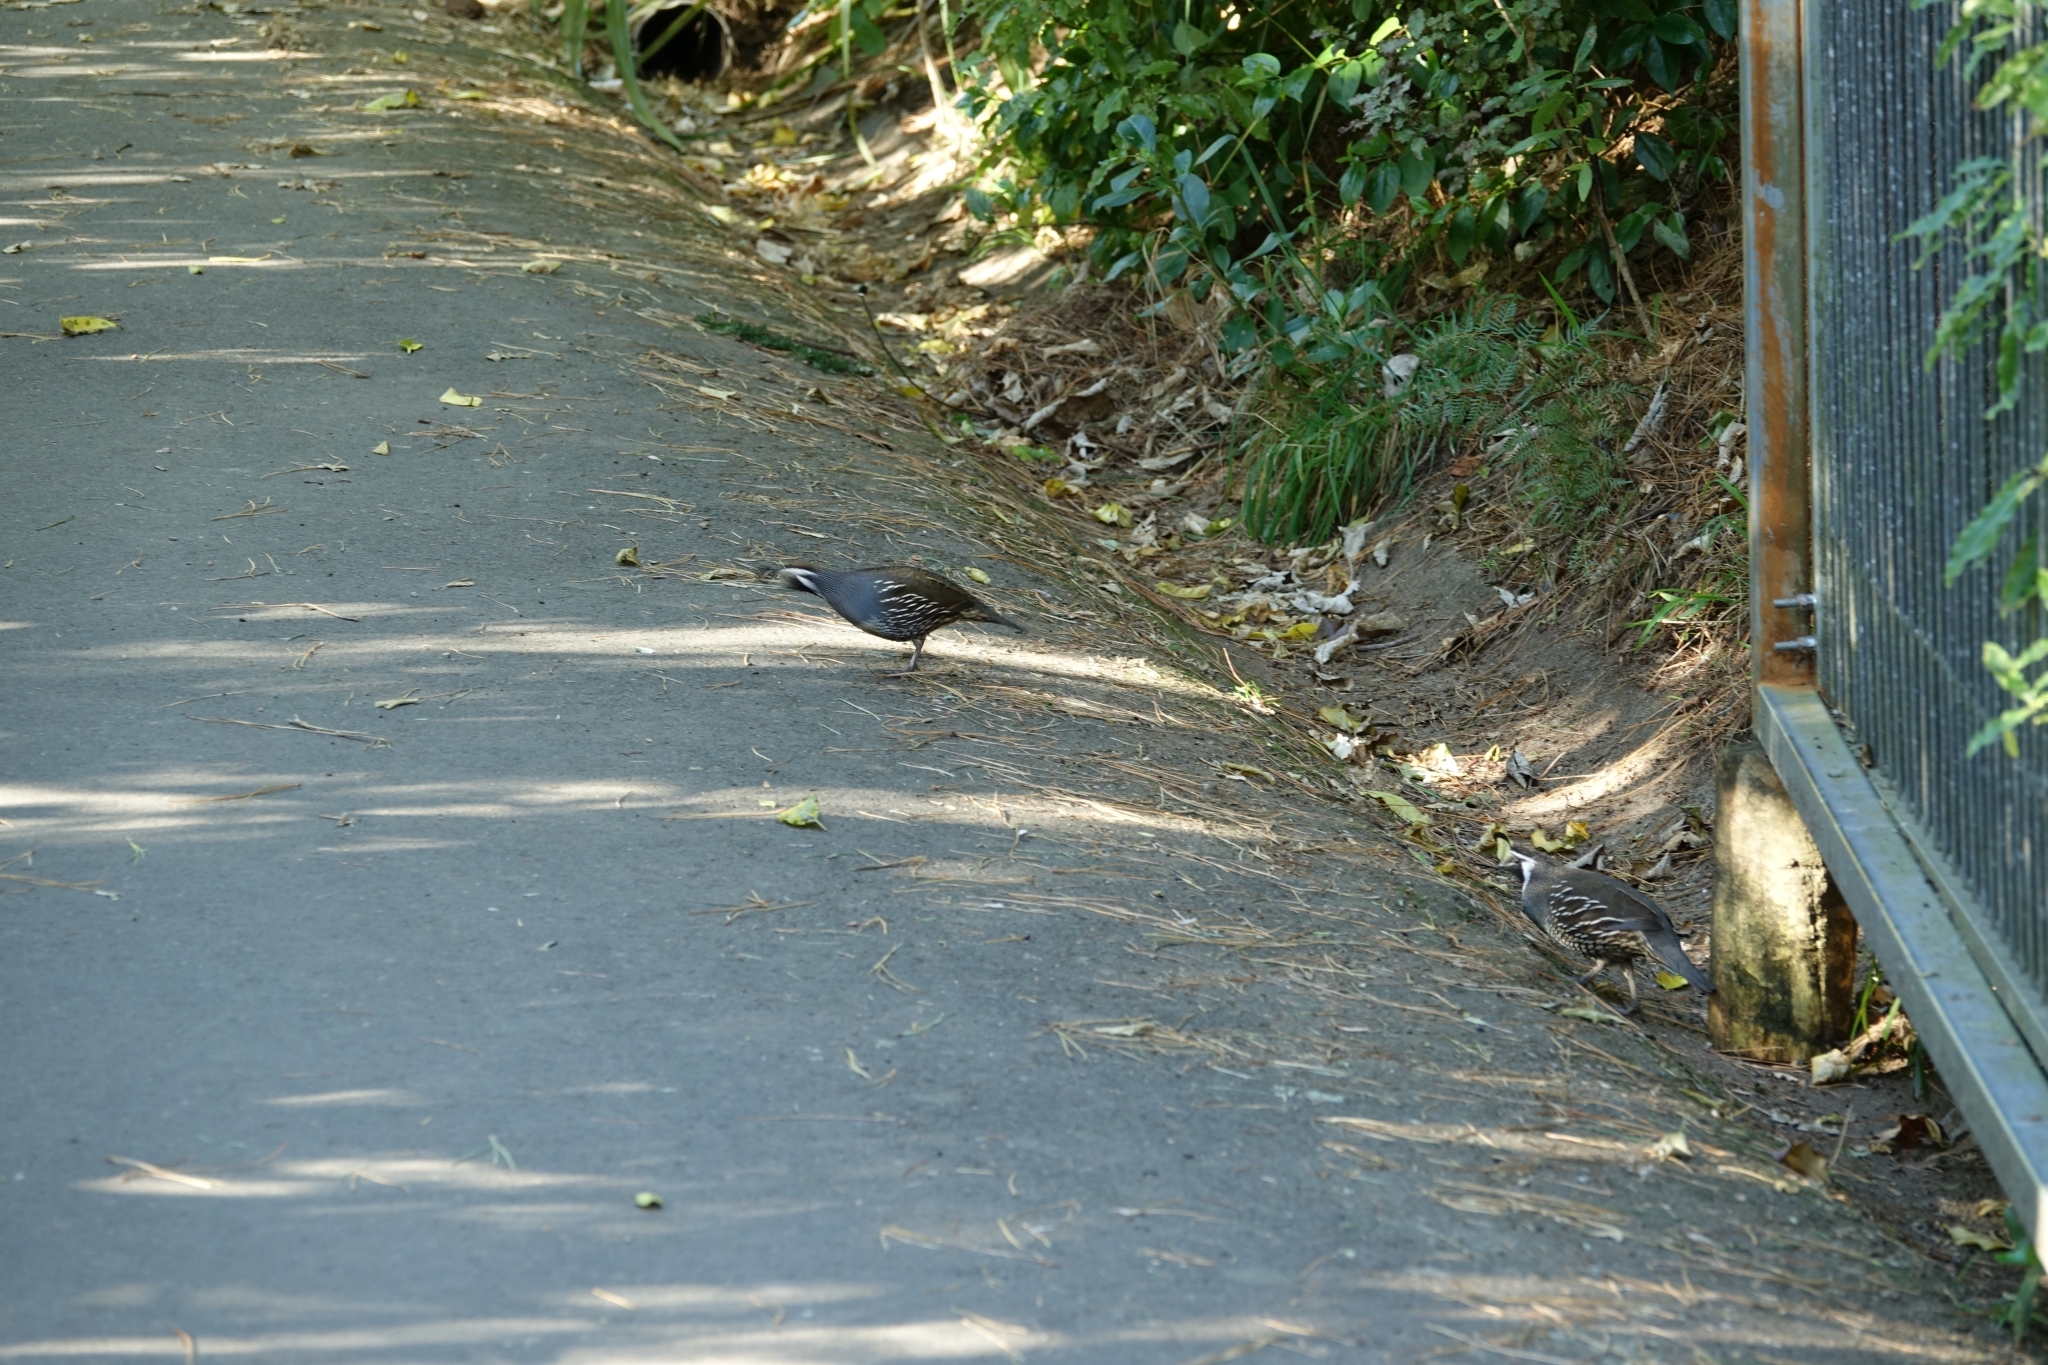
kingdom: Animalia
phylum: Chordata
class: Aves
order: Galliformes
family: Odontophoridae
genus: Callipepla
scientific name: Callipepla californica
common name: California quail
